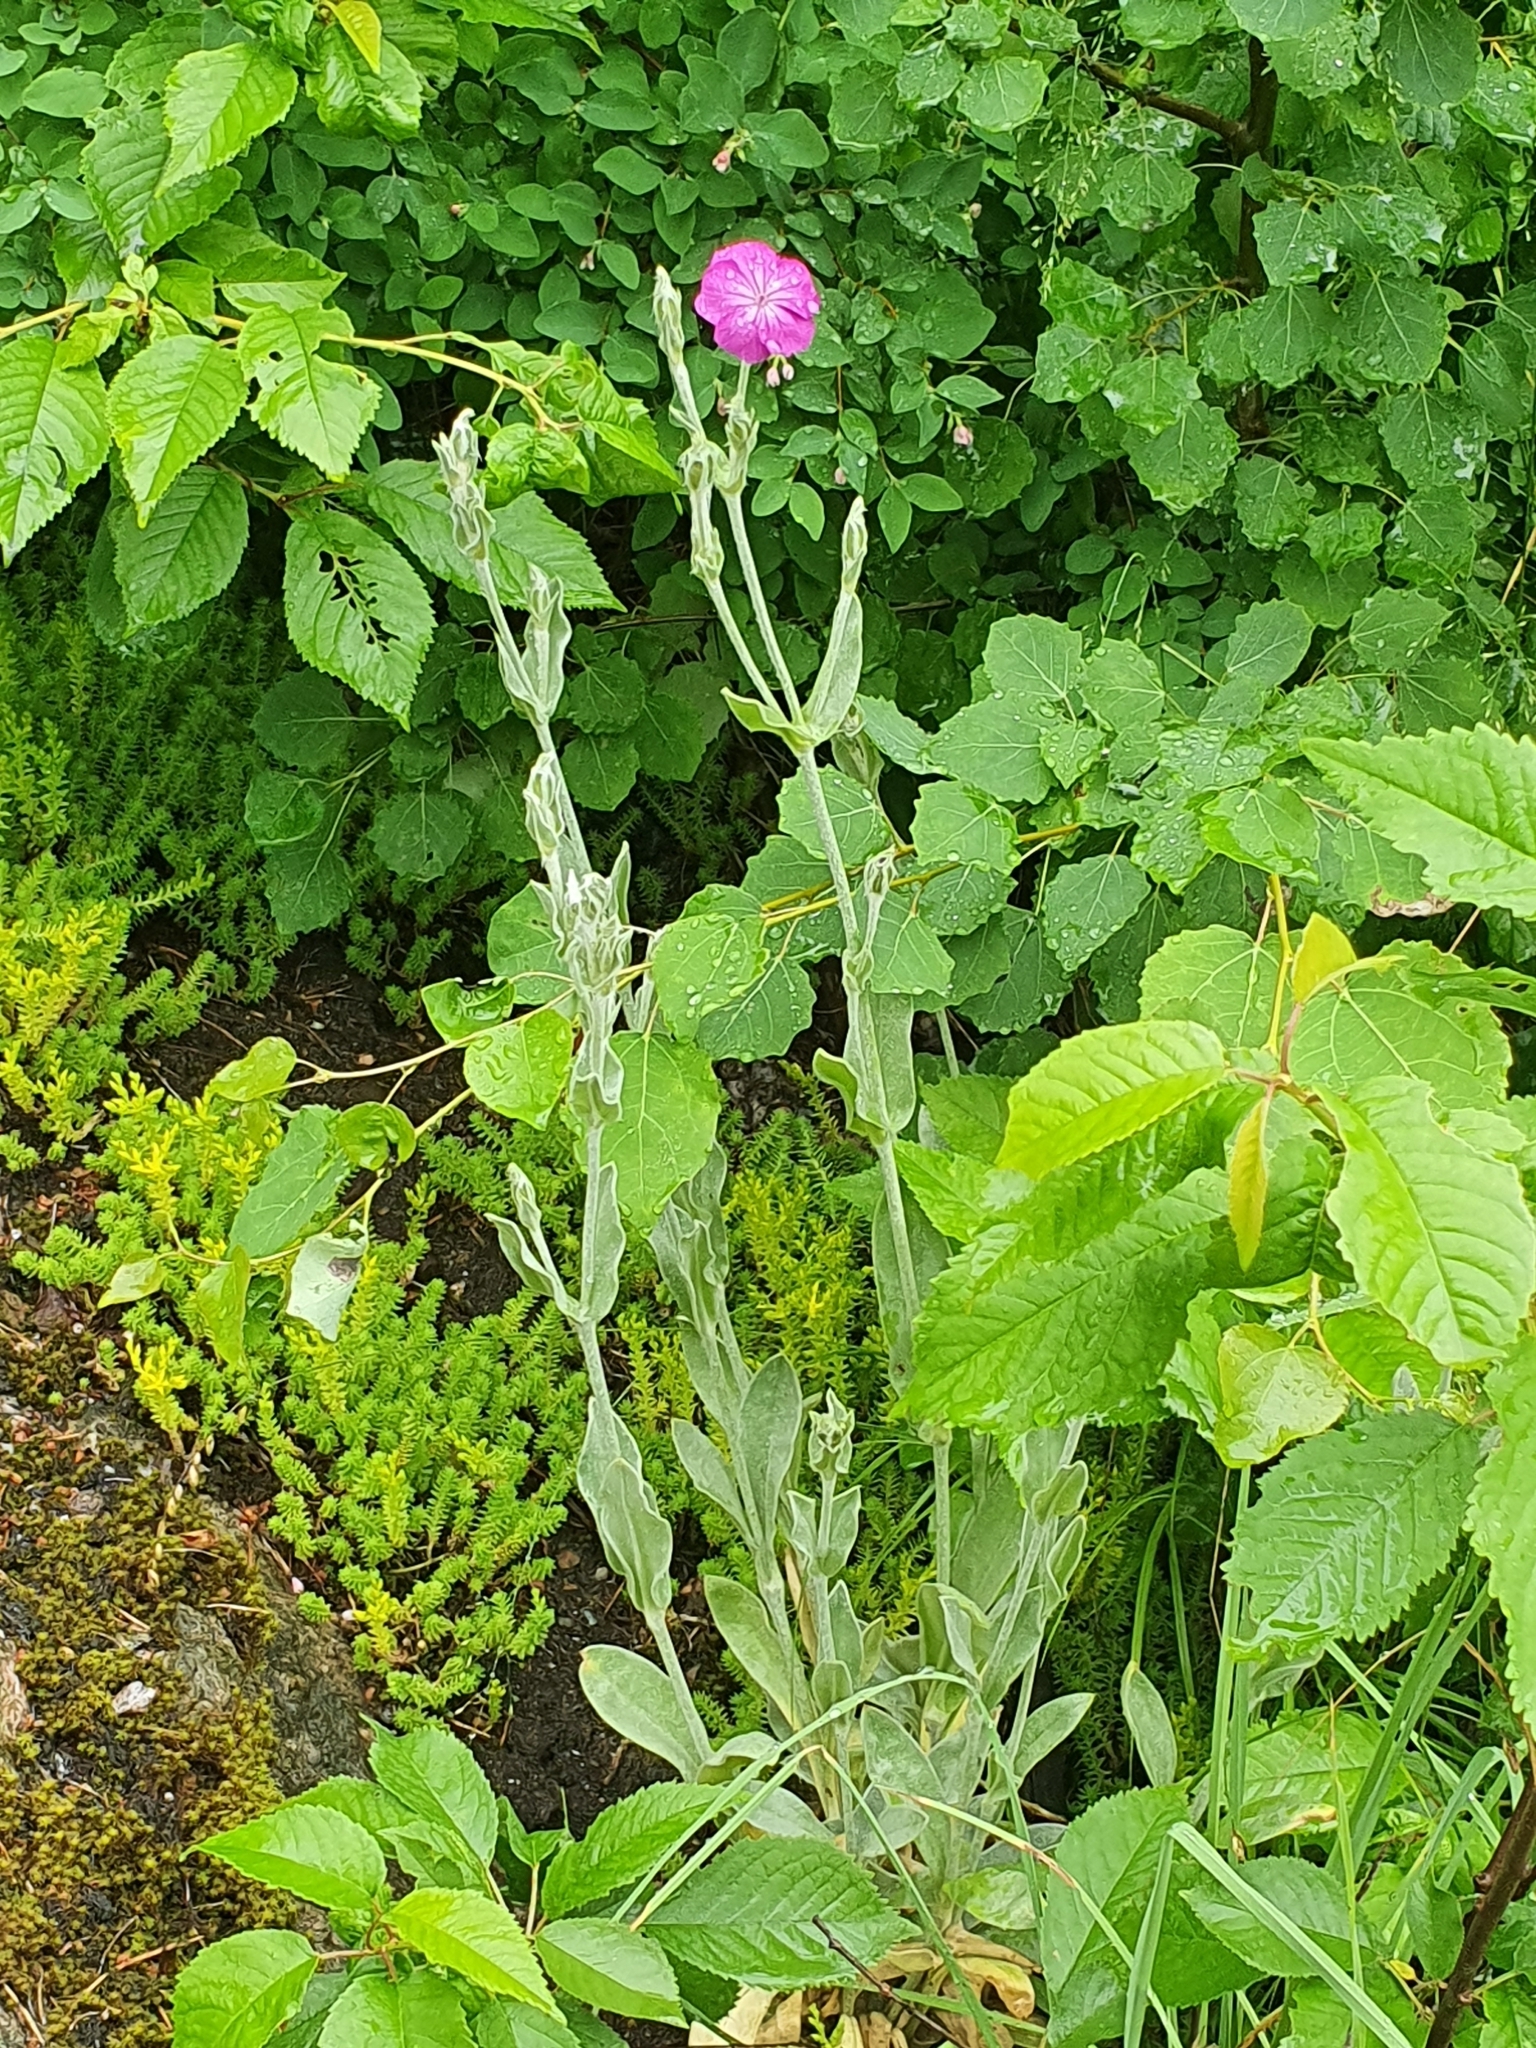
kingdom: Plantae
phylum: Tracheophyta
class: Magnoliopsida
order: Caryophyllales
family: Caryophyllaceae
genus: Silene
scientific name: Silene coronaria
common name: Rose campion
